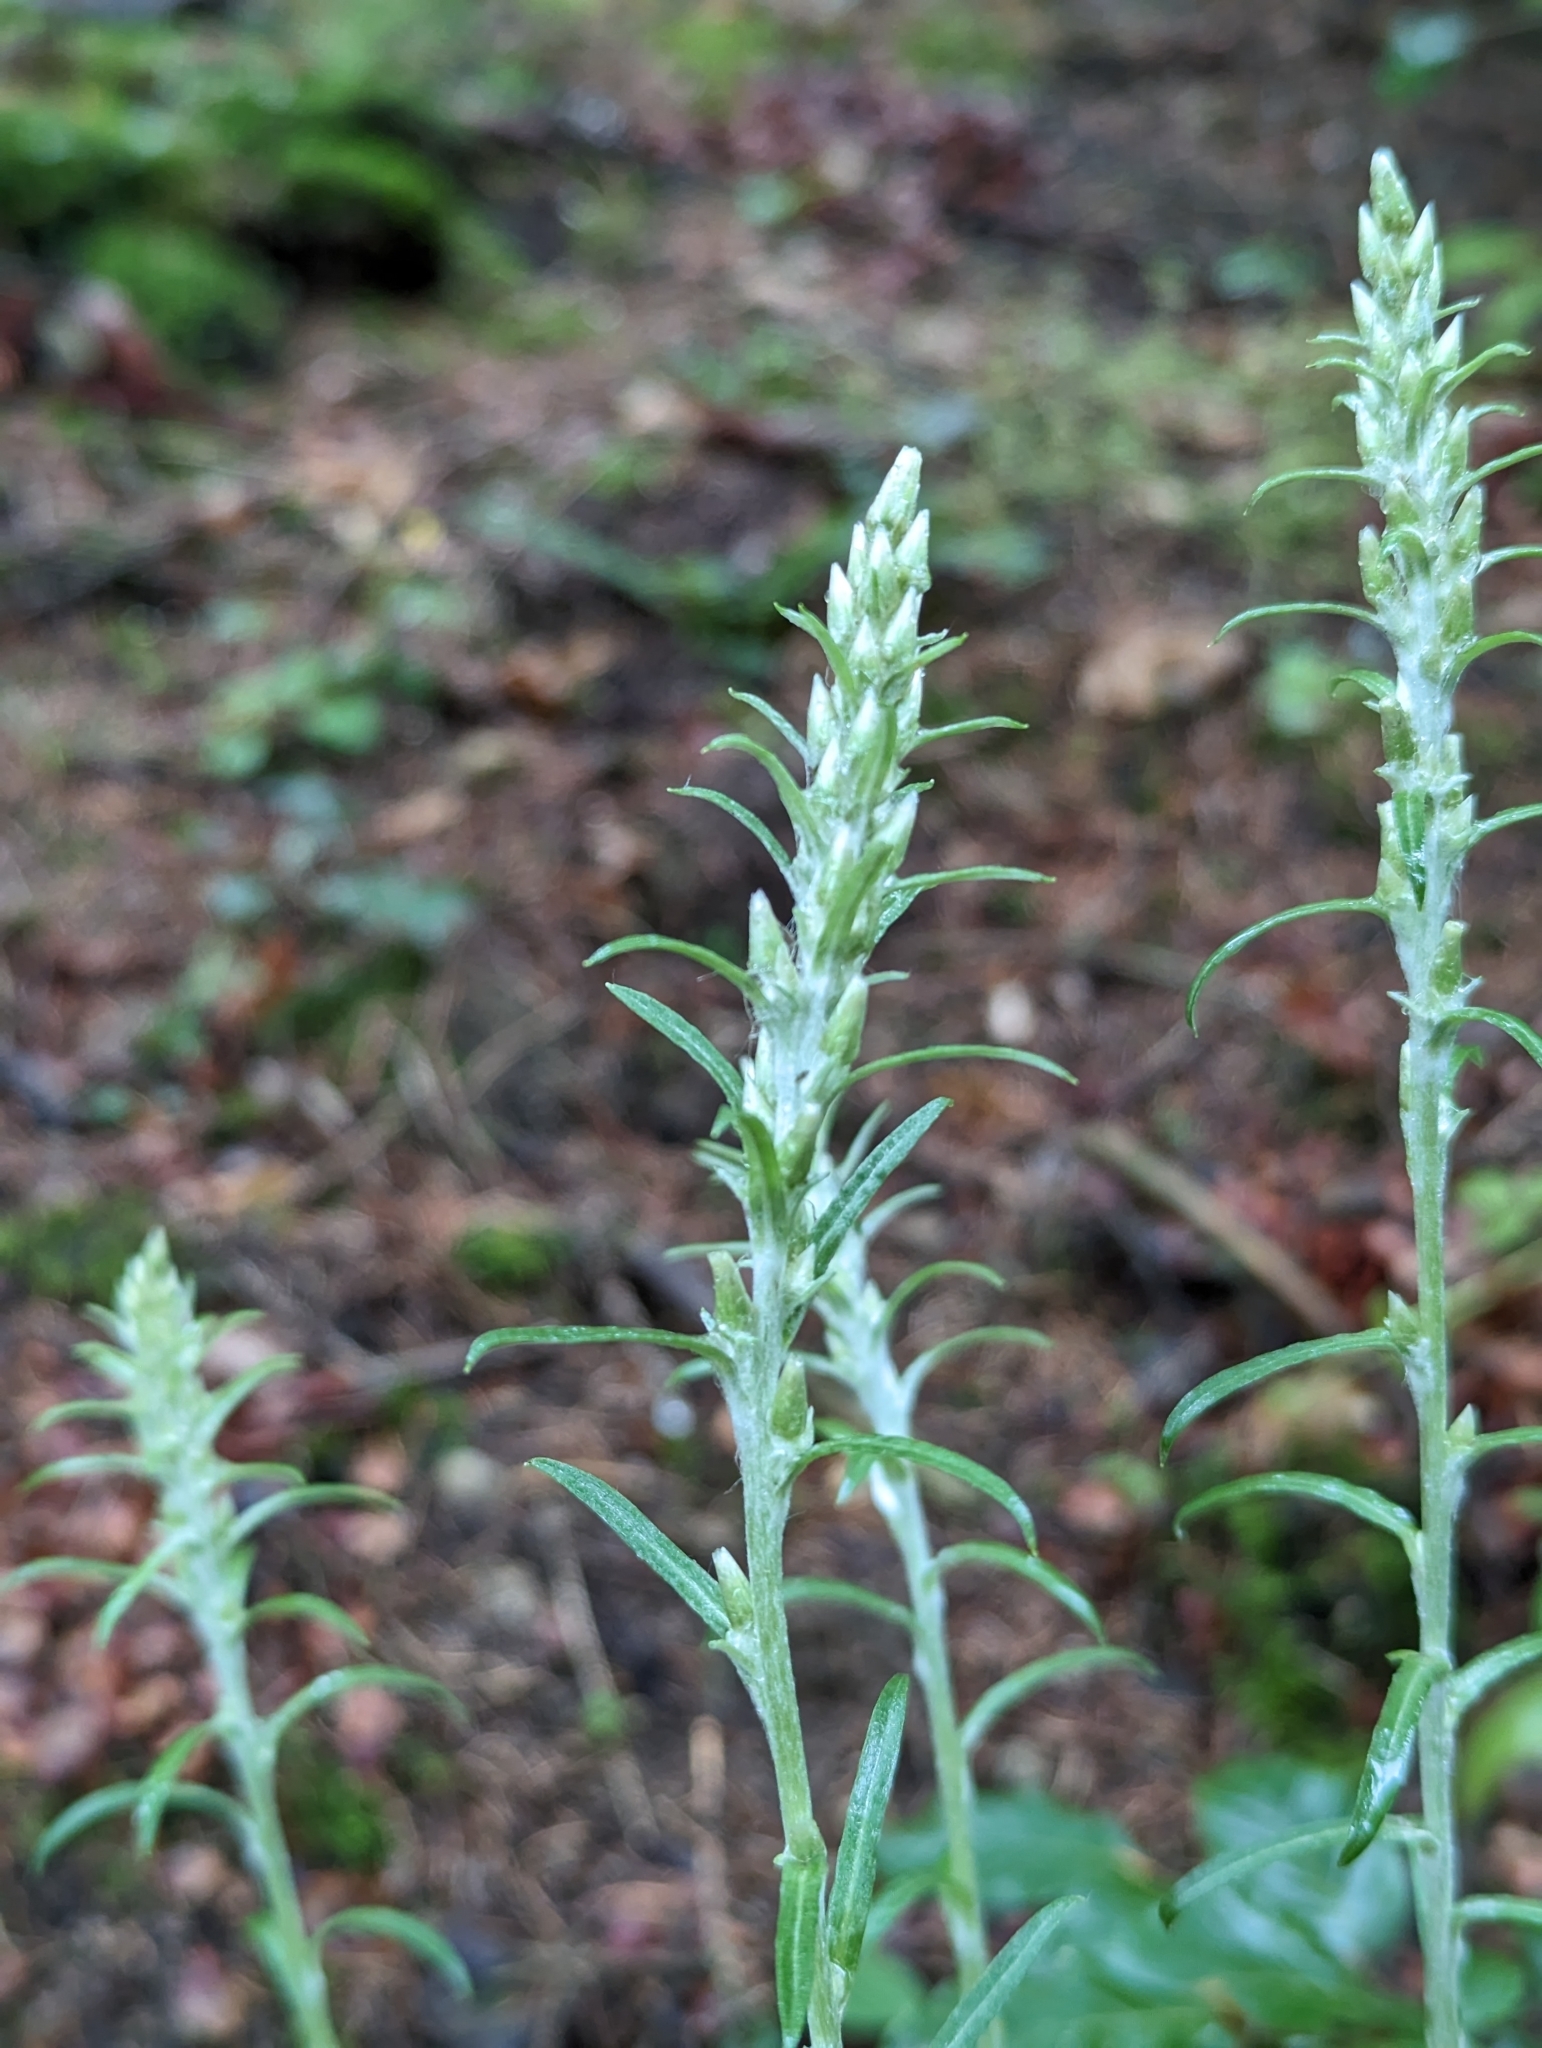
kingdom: Plantae
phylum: Tracheophyta
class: Magnoliopsida
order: Asterales
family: Asteraceae
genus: Omalotheca
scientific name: Omalotheca sylvatica
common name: Heath cudweed
